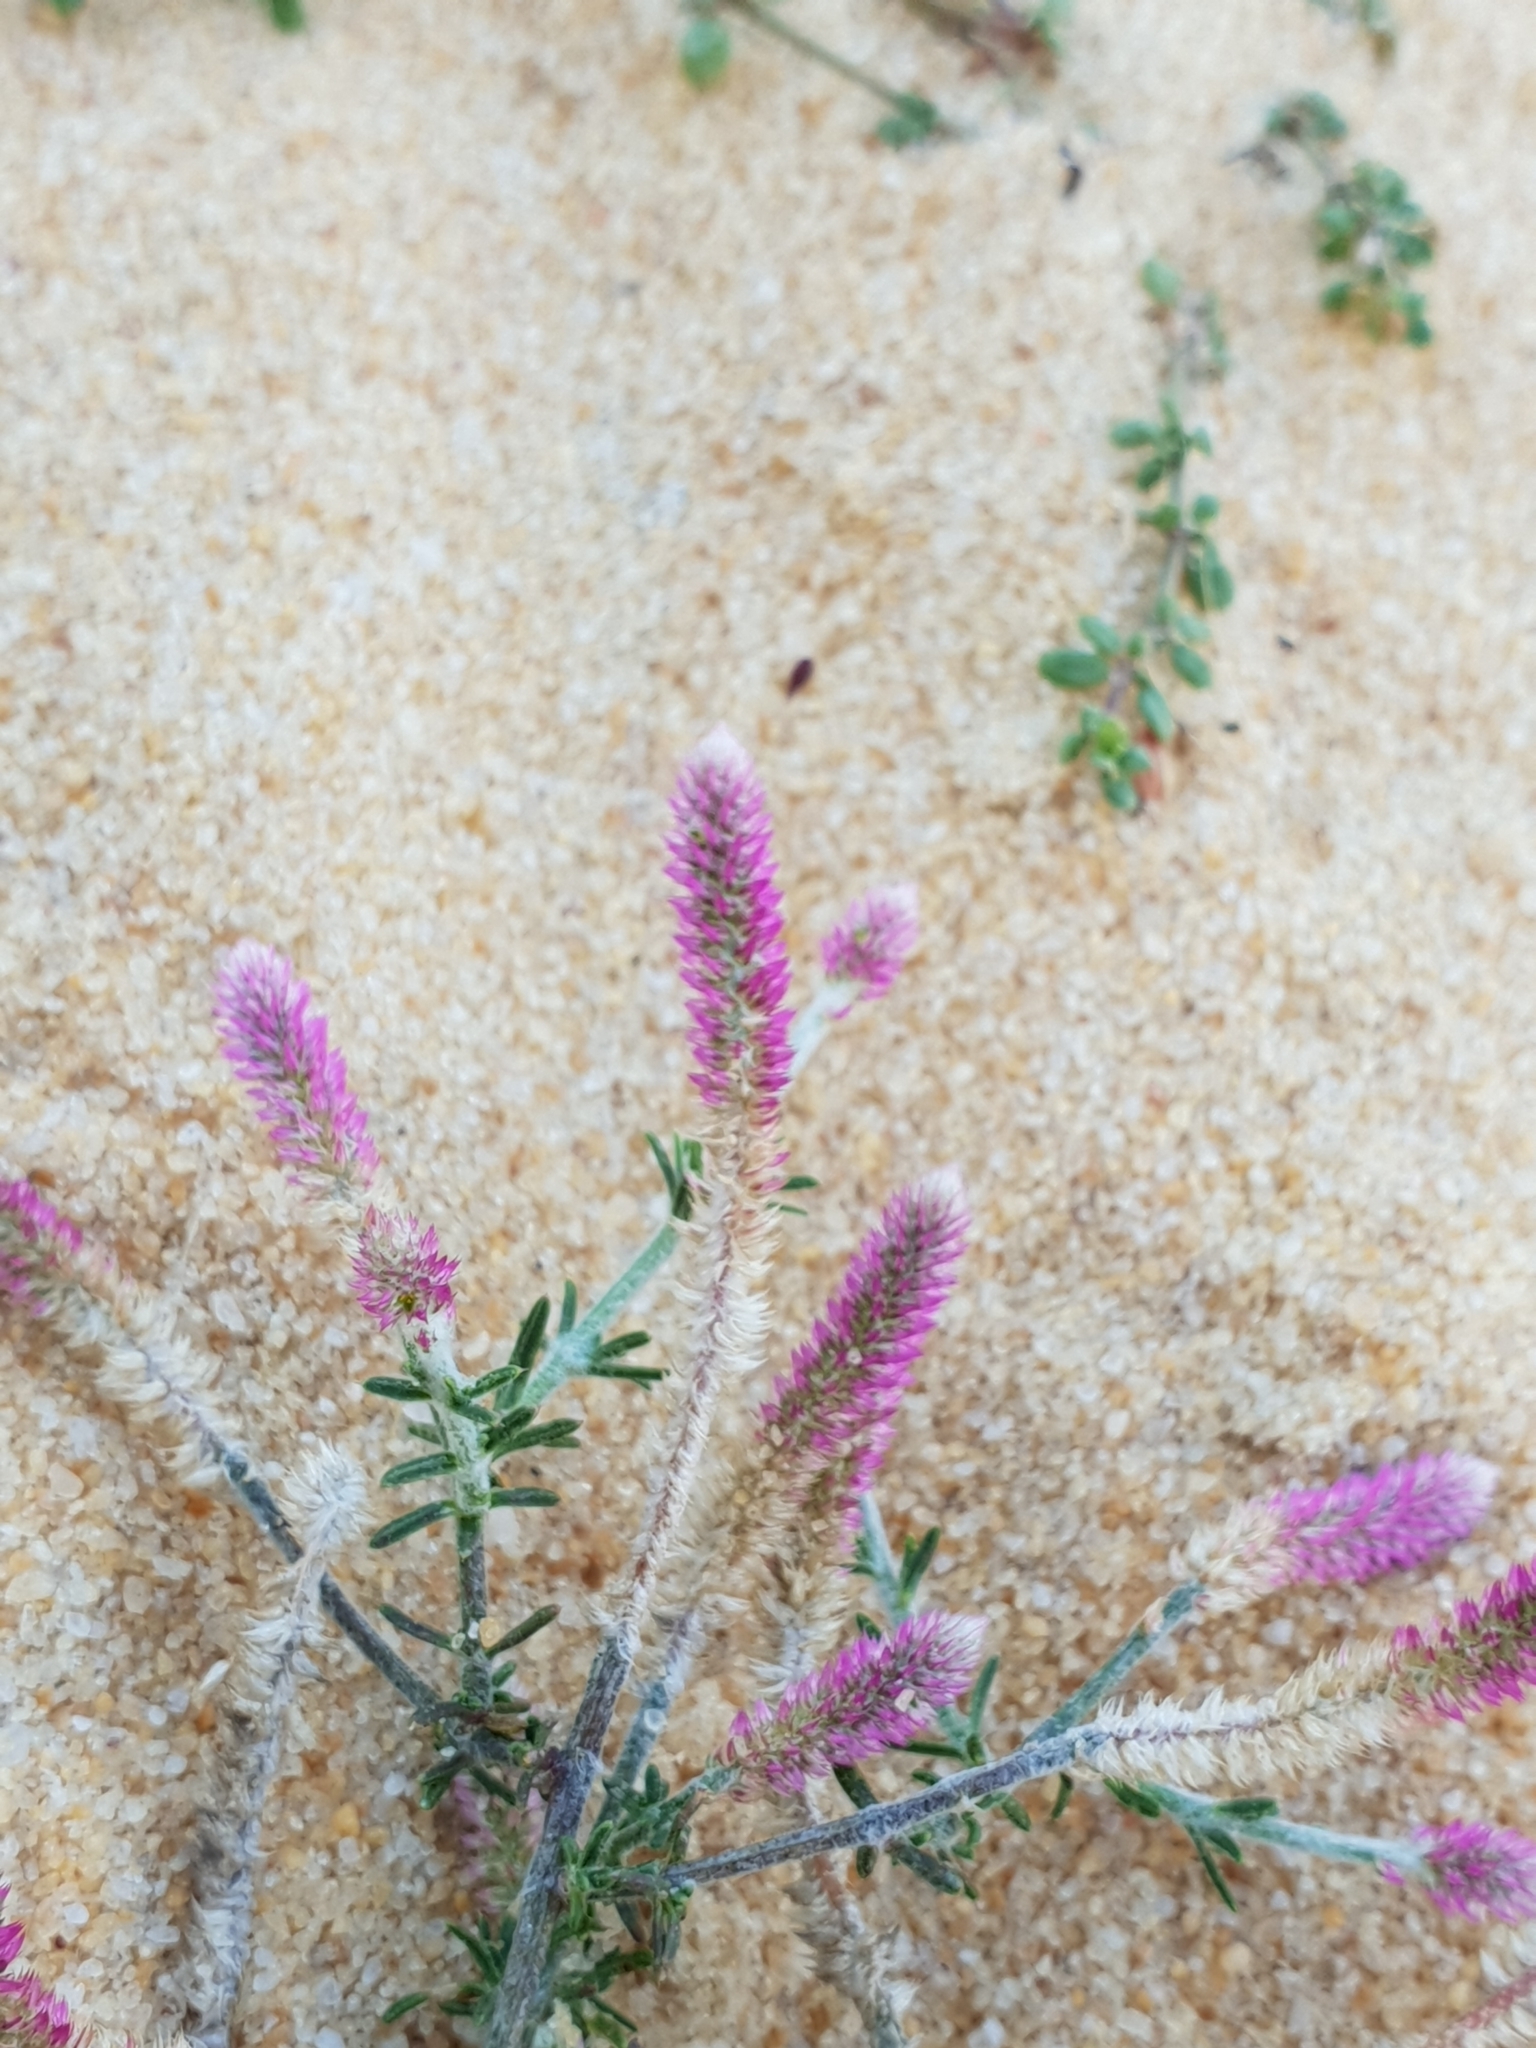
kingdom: Plantae
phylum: Tracheophyta
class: Magnoliopsida
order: Caryophyllales
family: Amaranthaceae
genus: Trichuriella
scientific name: Trichuriella monsoniae
